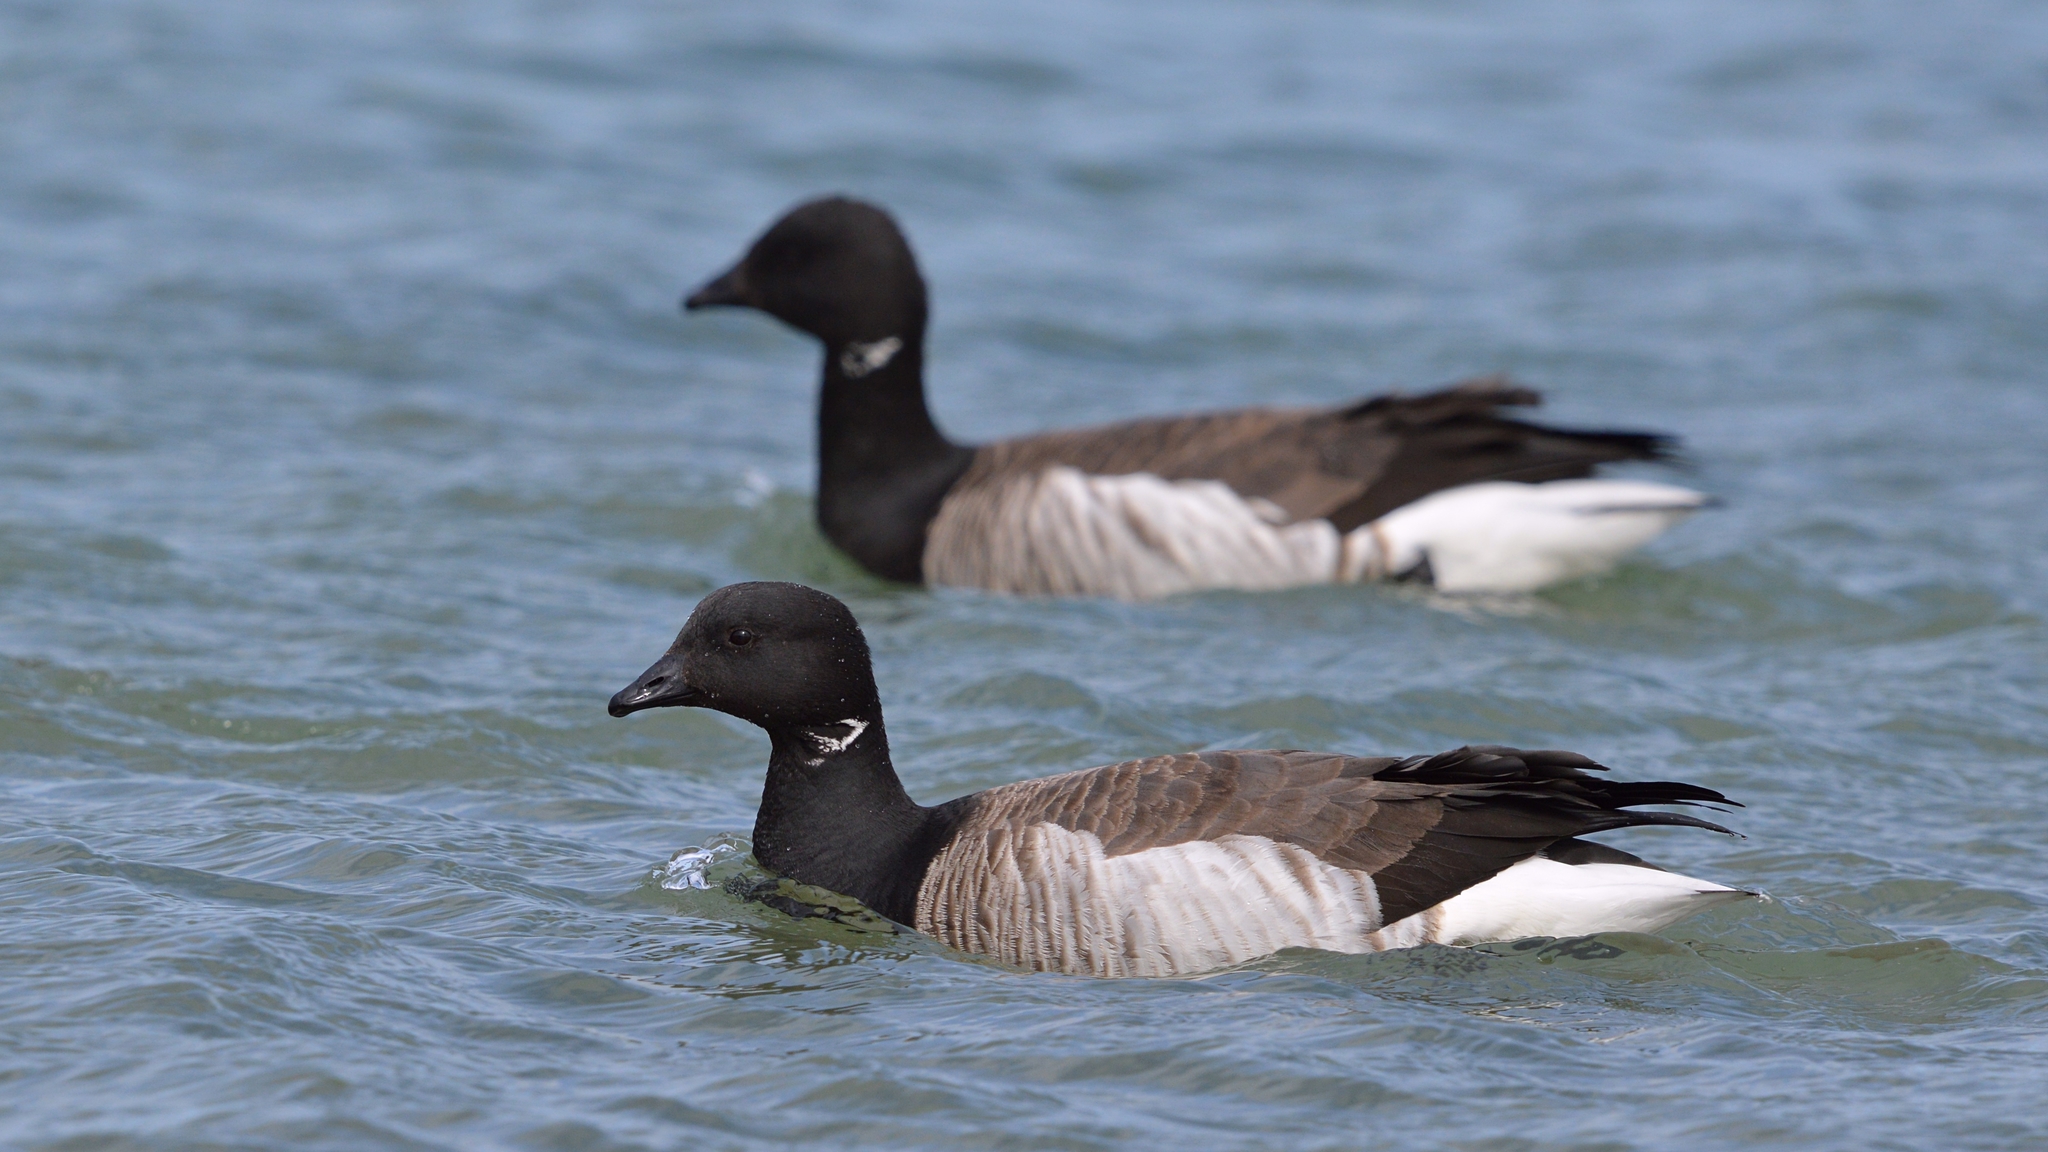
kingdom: Animalia
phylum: Chordata
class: Aves
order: Anseriformes
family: Anatidae
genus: Branta
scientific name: Branta bernicla
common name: Brant goose
